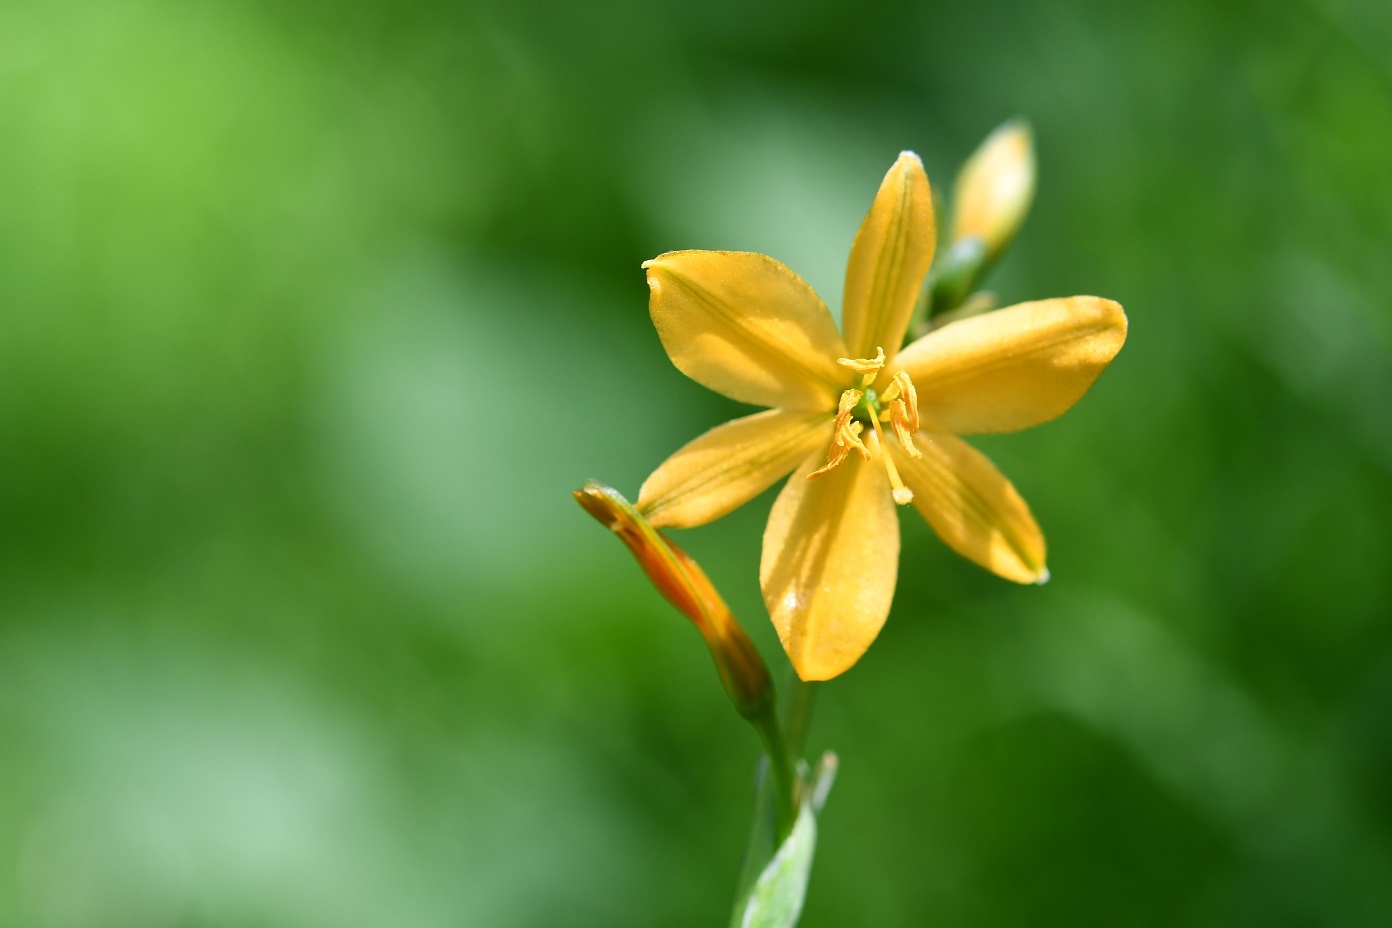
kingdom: Plantae
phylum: Tracheophyta
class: Liliopsida
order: Asparagales
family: Asparagaceae
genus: Echeandia
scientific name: Echeandia skinneri
